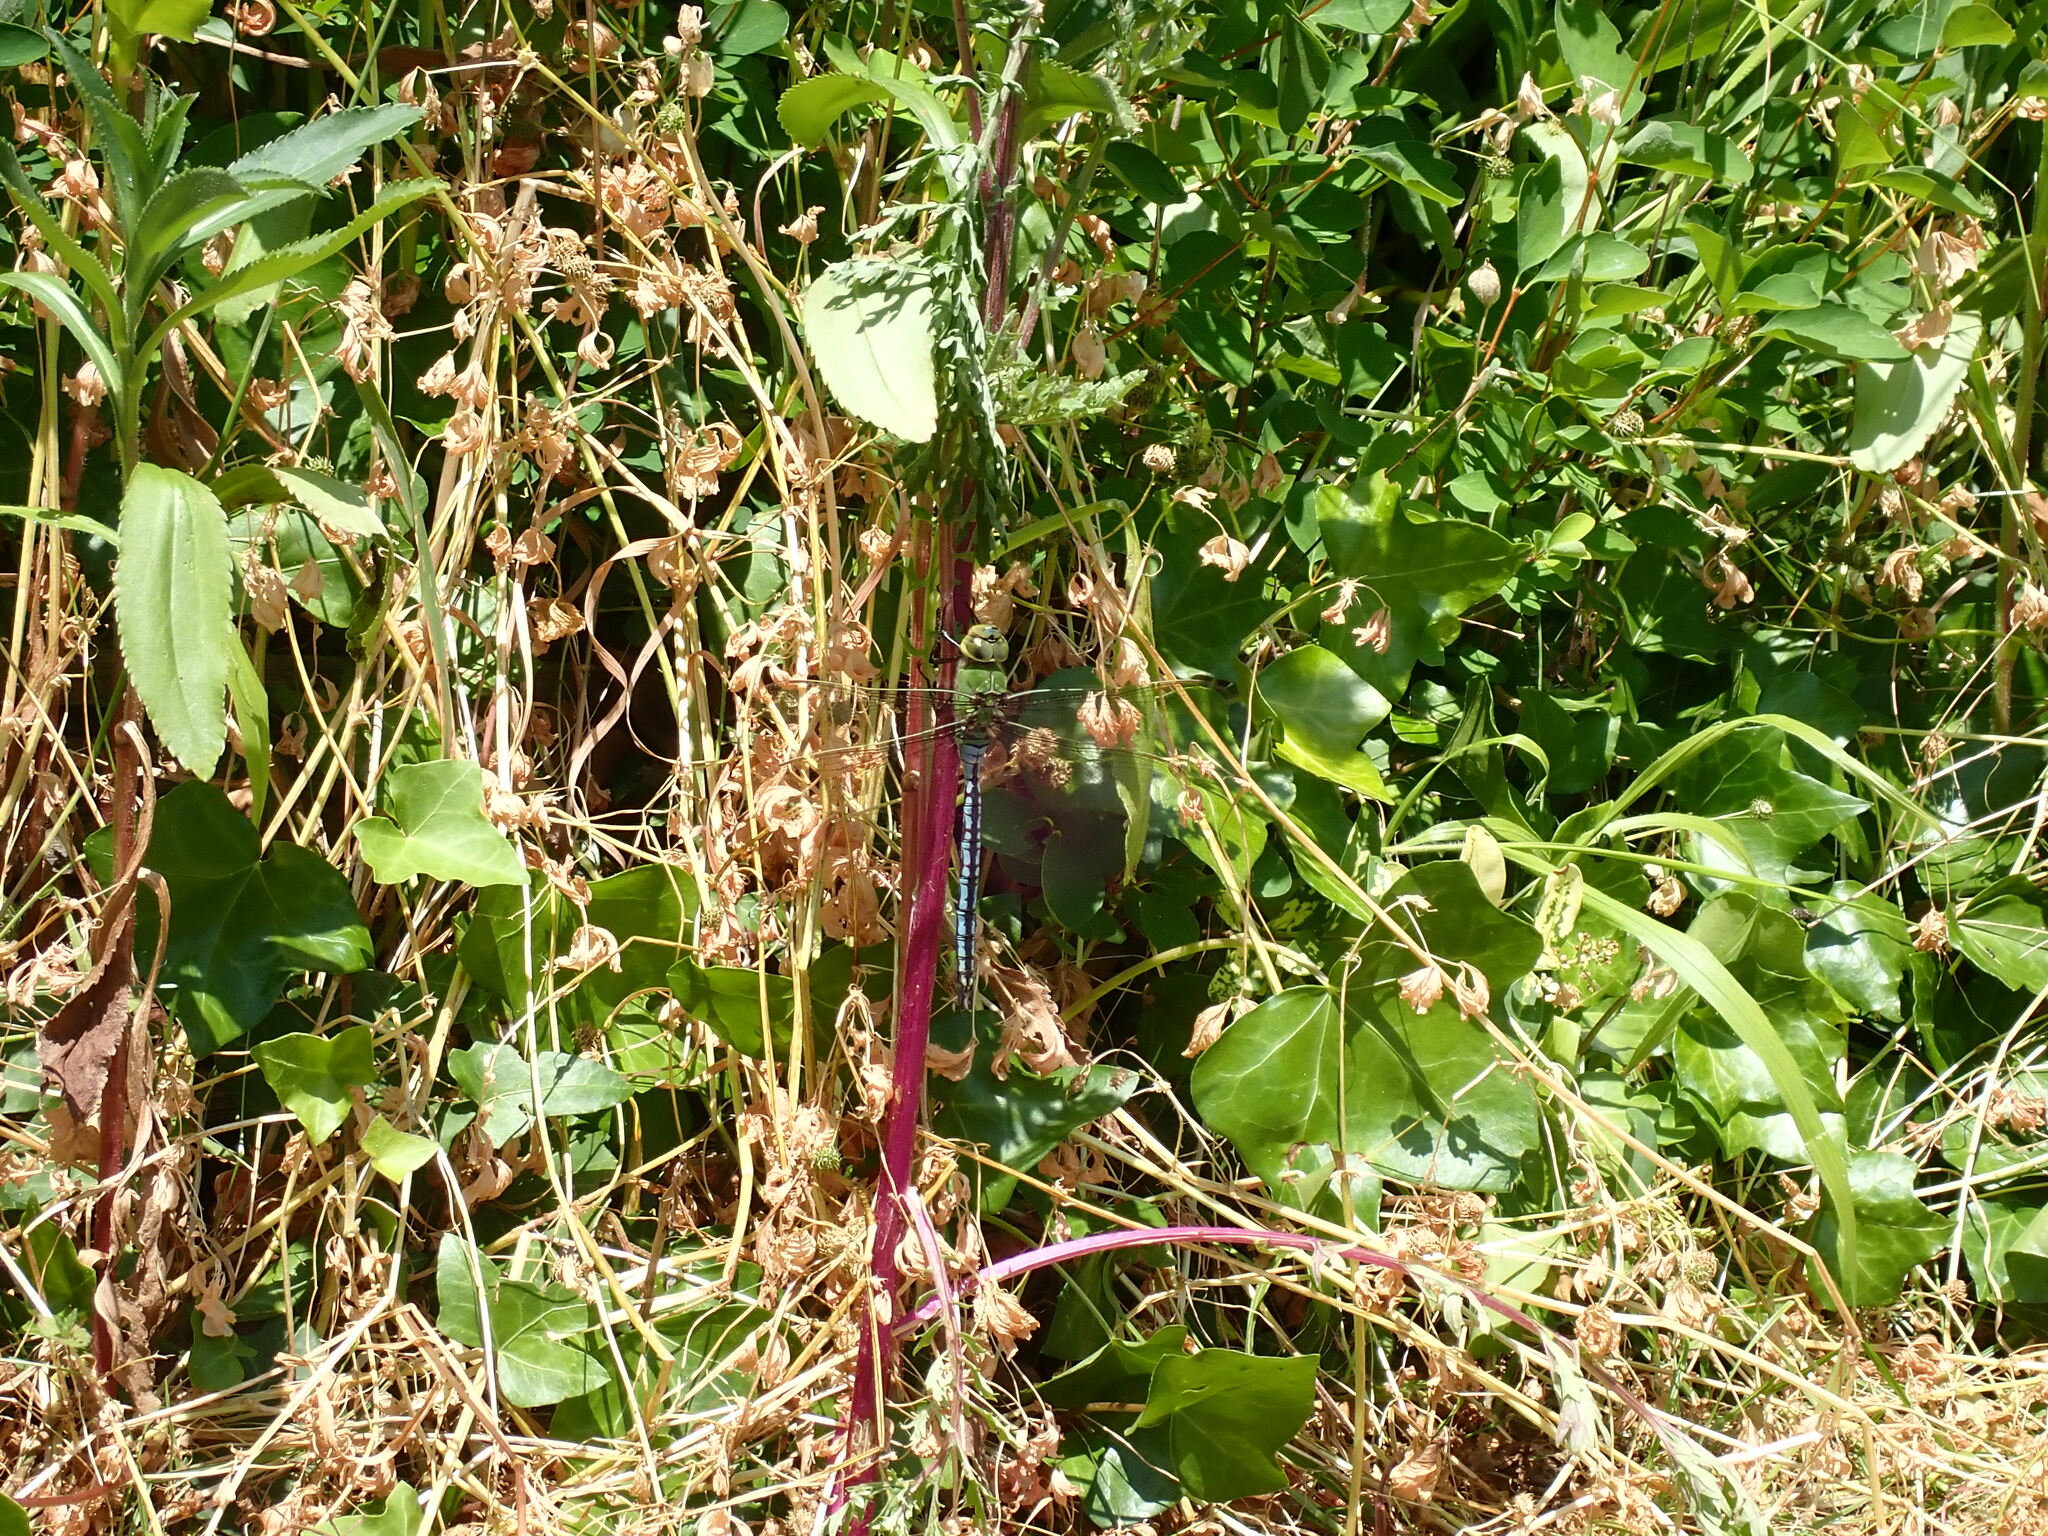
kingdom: Animalia
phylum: Arthropoda
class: Insecta
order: Odonata
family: Aeshnidae
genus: Anax
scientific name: Anax imperator
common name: Emperor dragonfly
